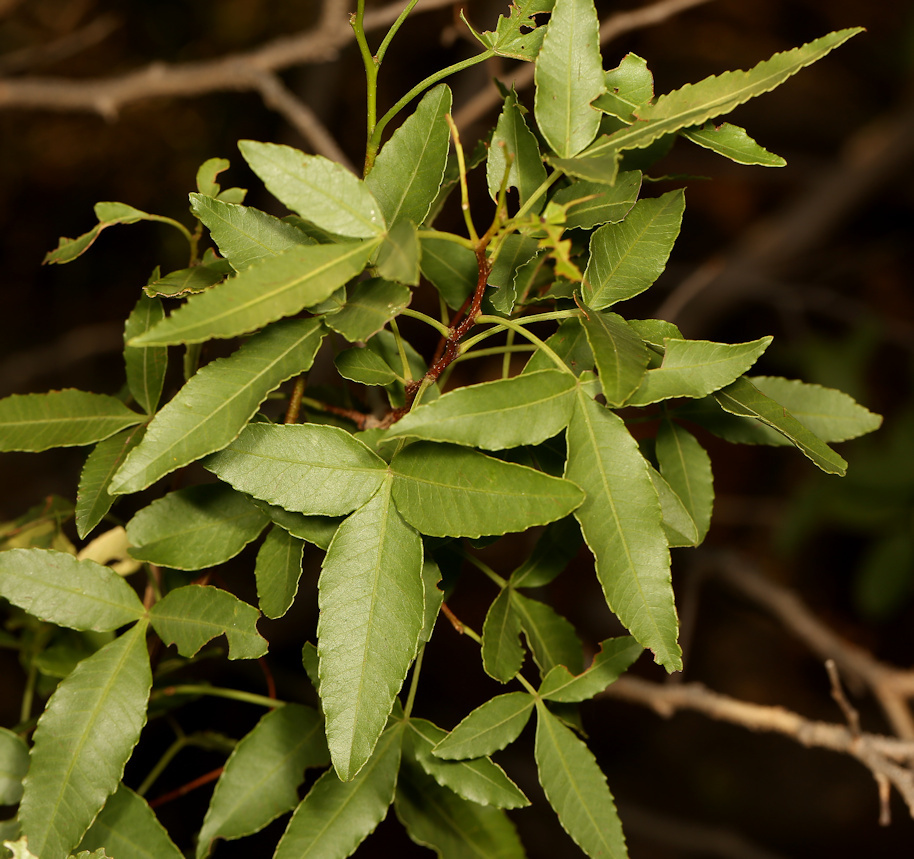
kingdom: Plantae
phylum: Tracheophyta
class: Magnoliopsida
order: Sapindales
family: Anacardiaceae
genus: Searsia
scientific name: Searsia leptodictya
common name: Mountain karee
